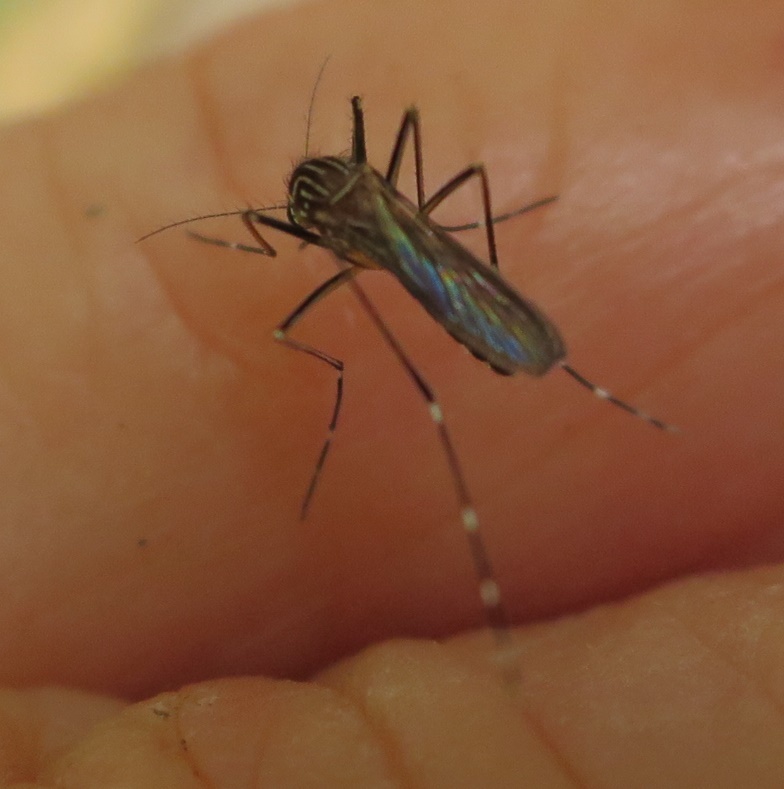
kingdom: Animalia
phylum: Arthropoda
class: Insecta
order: Diptera
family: Culicidae
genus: Aedes
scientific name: Aedes notoscriptus
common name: Australian backyard mosquito
